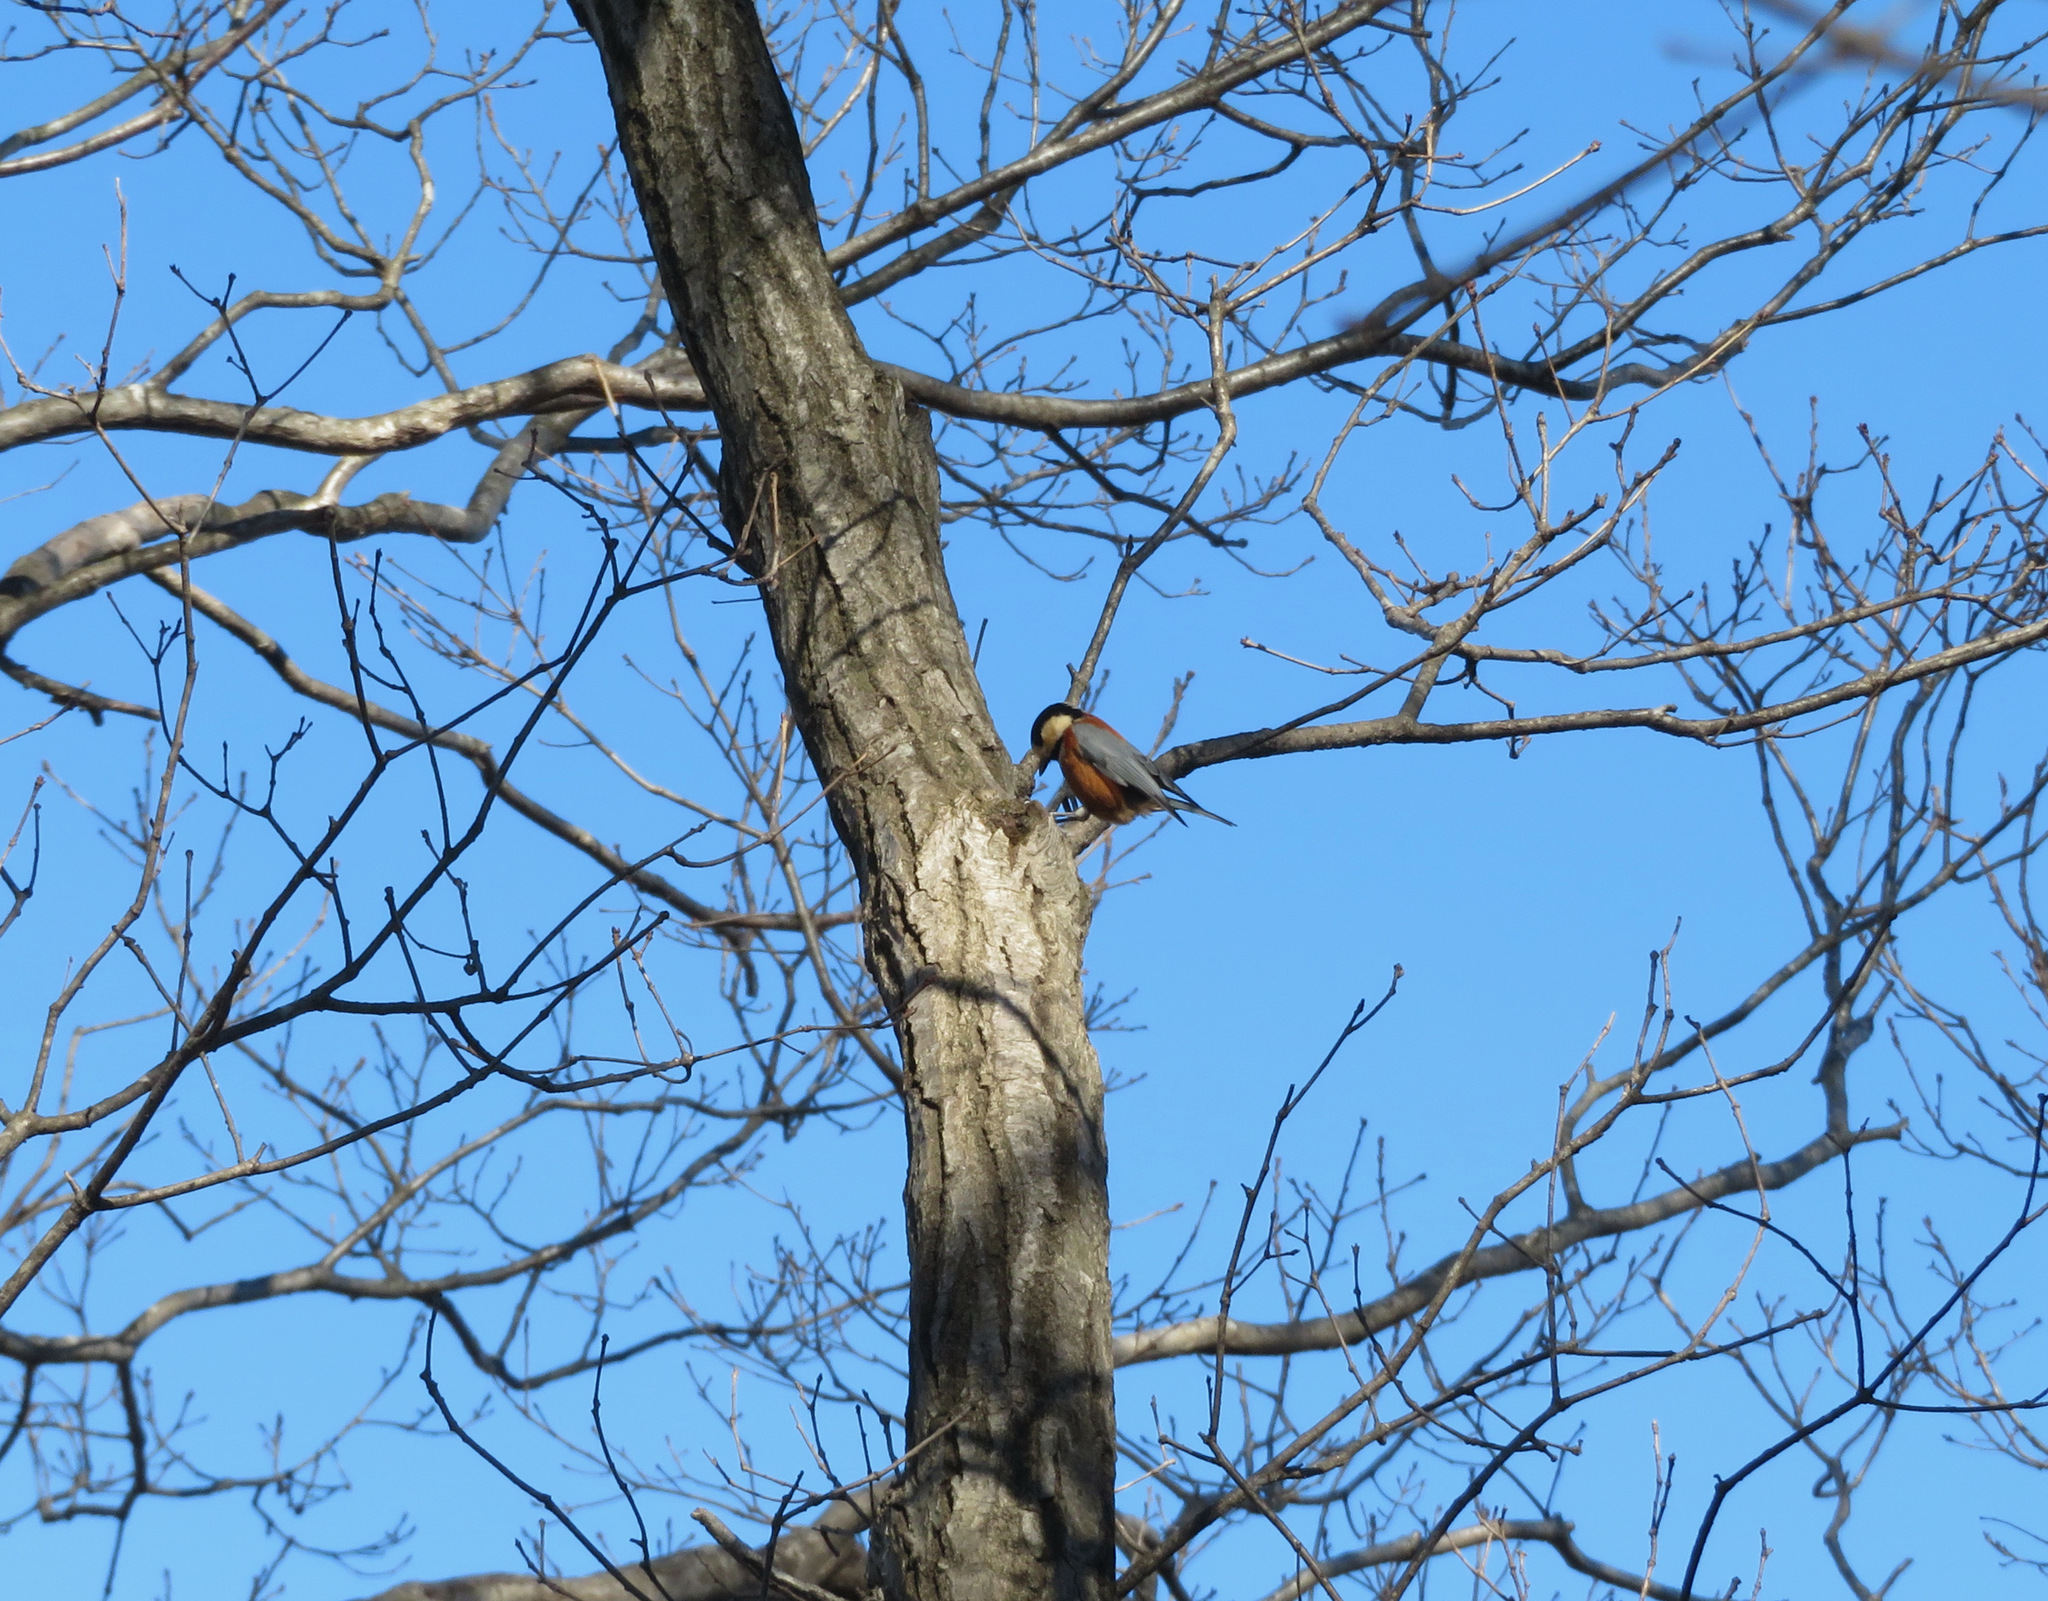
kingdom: Animalia
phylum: Chordata
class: Aves
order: Passeriformes
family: Paridae
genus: Poecile
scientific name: Poecile varius
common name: Varied tit
